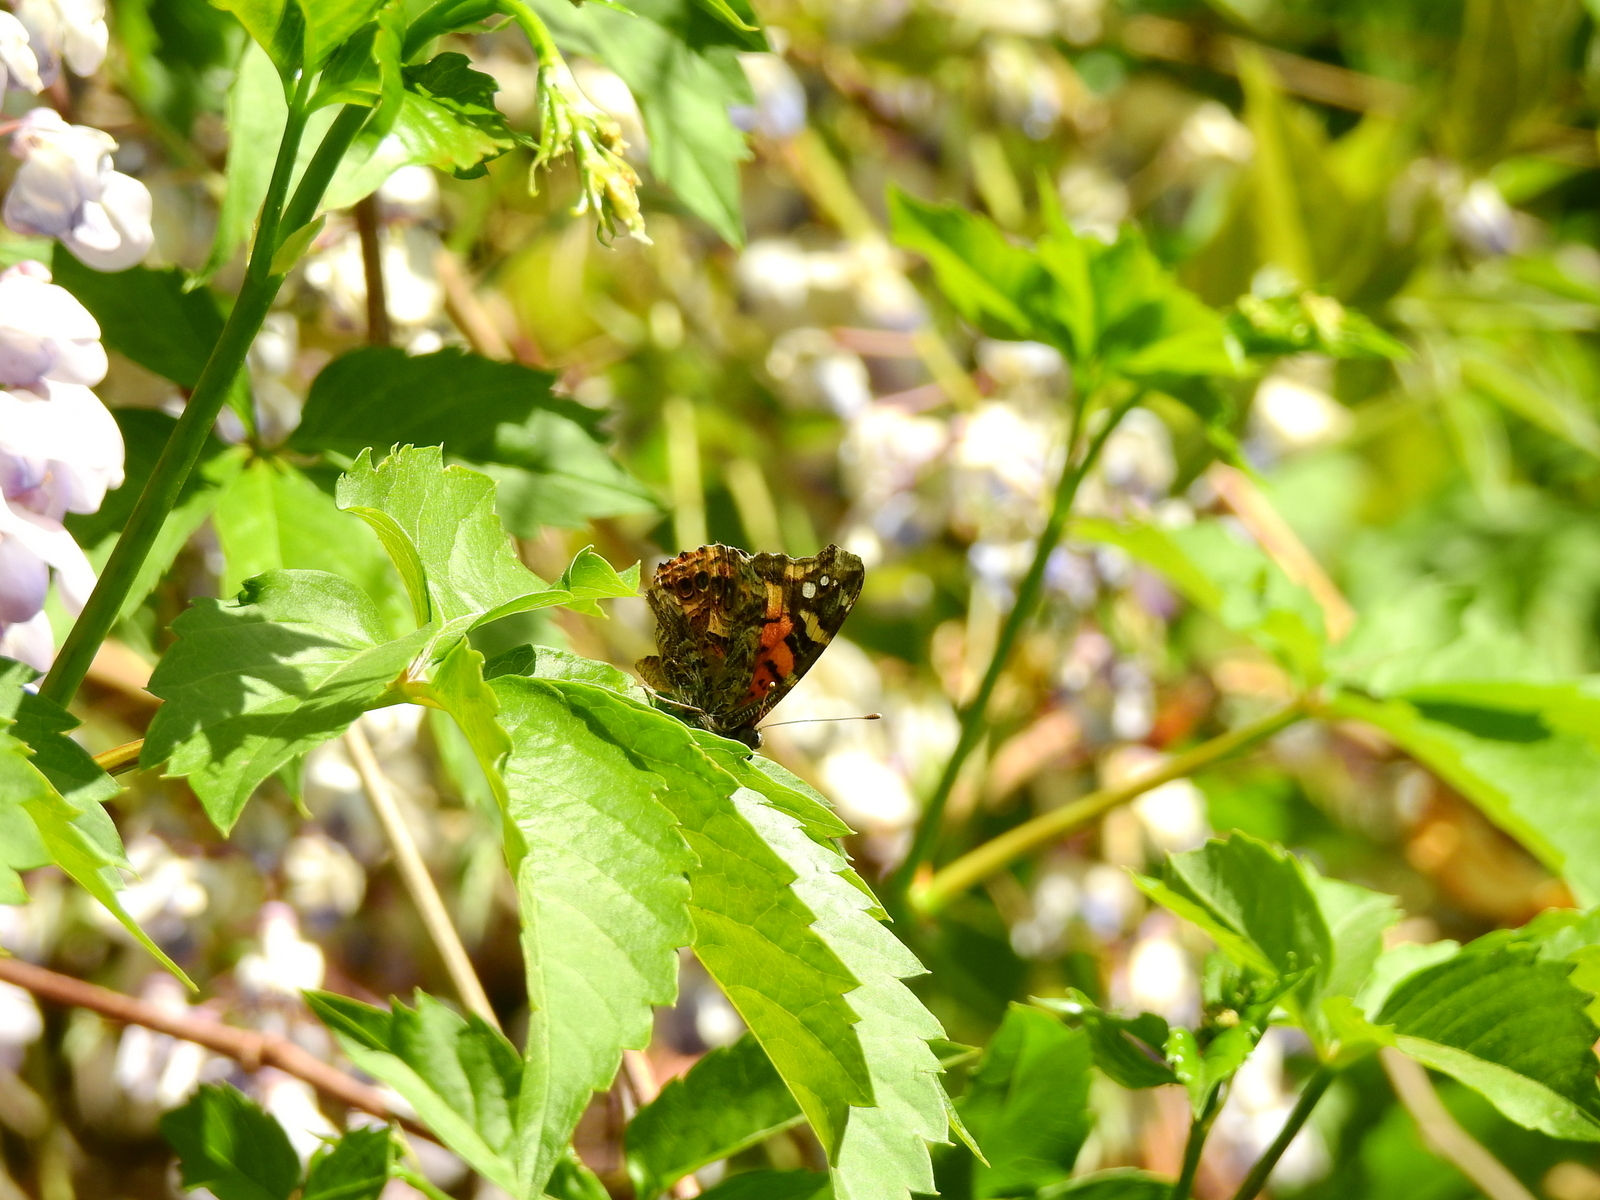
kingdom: Animalia
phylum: Arthropoda
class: Insecta
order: Lepidoptera
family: Nymphalidae
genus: Vanessa
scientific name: Vanessa carye
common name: Subtropical lady
